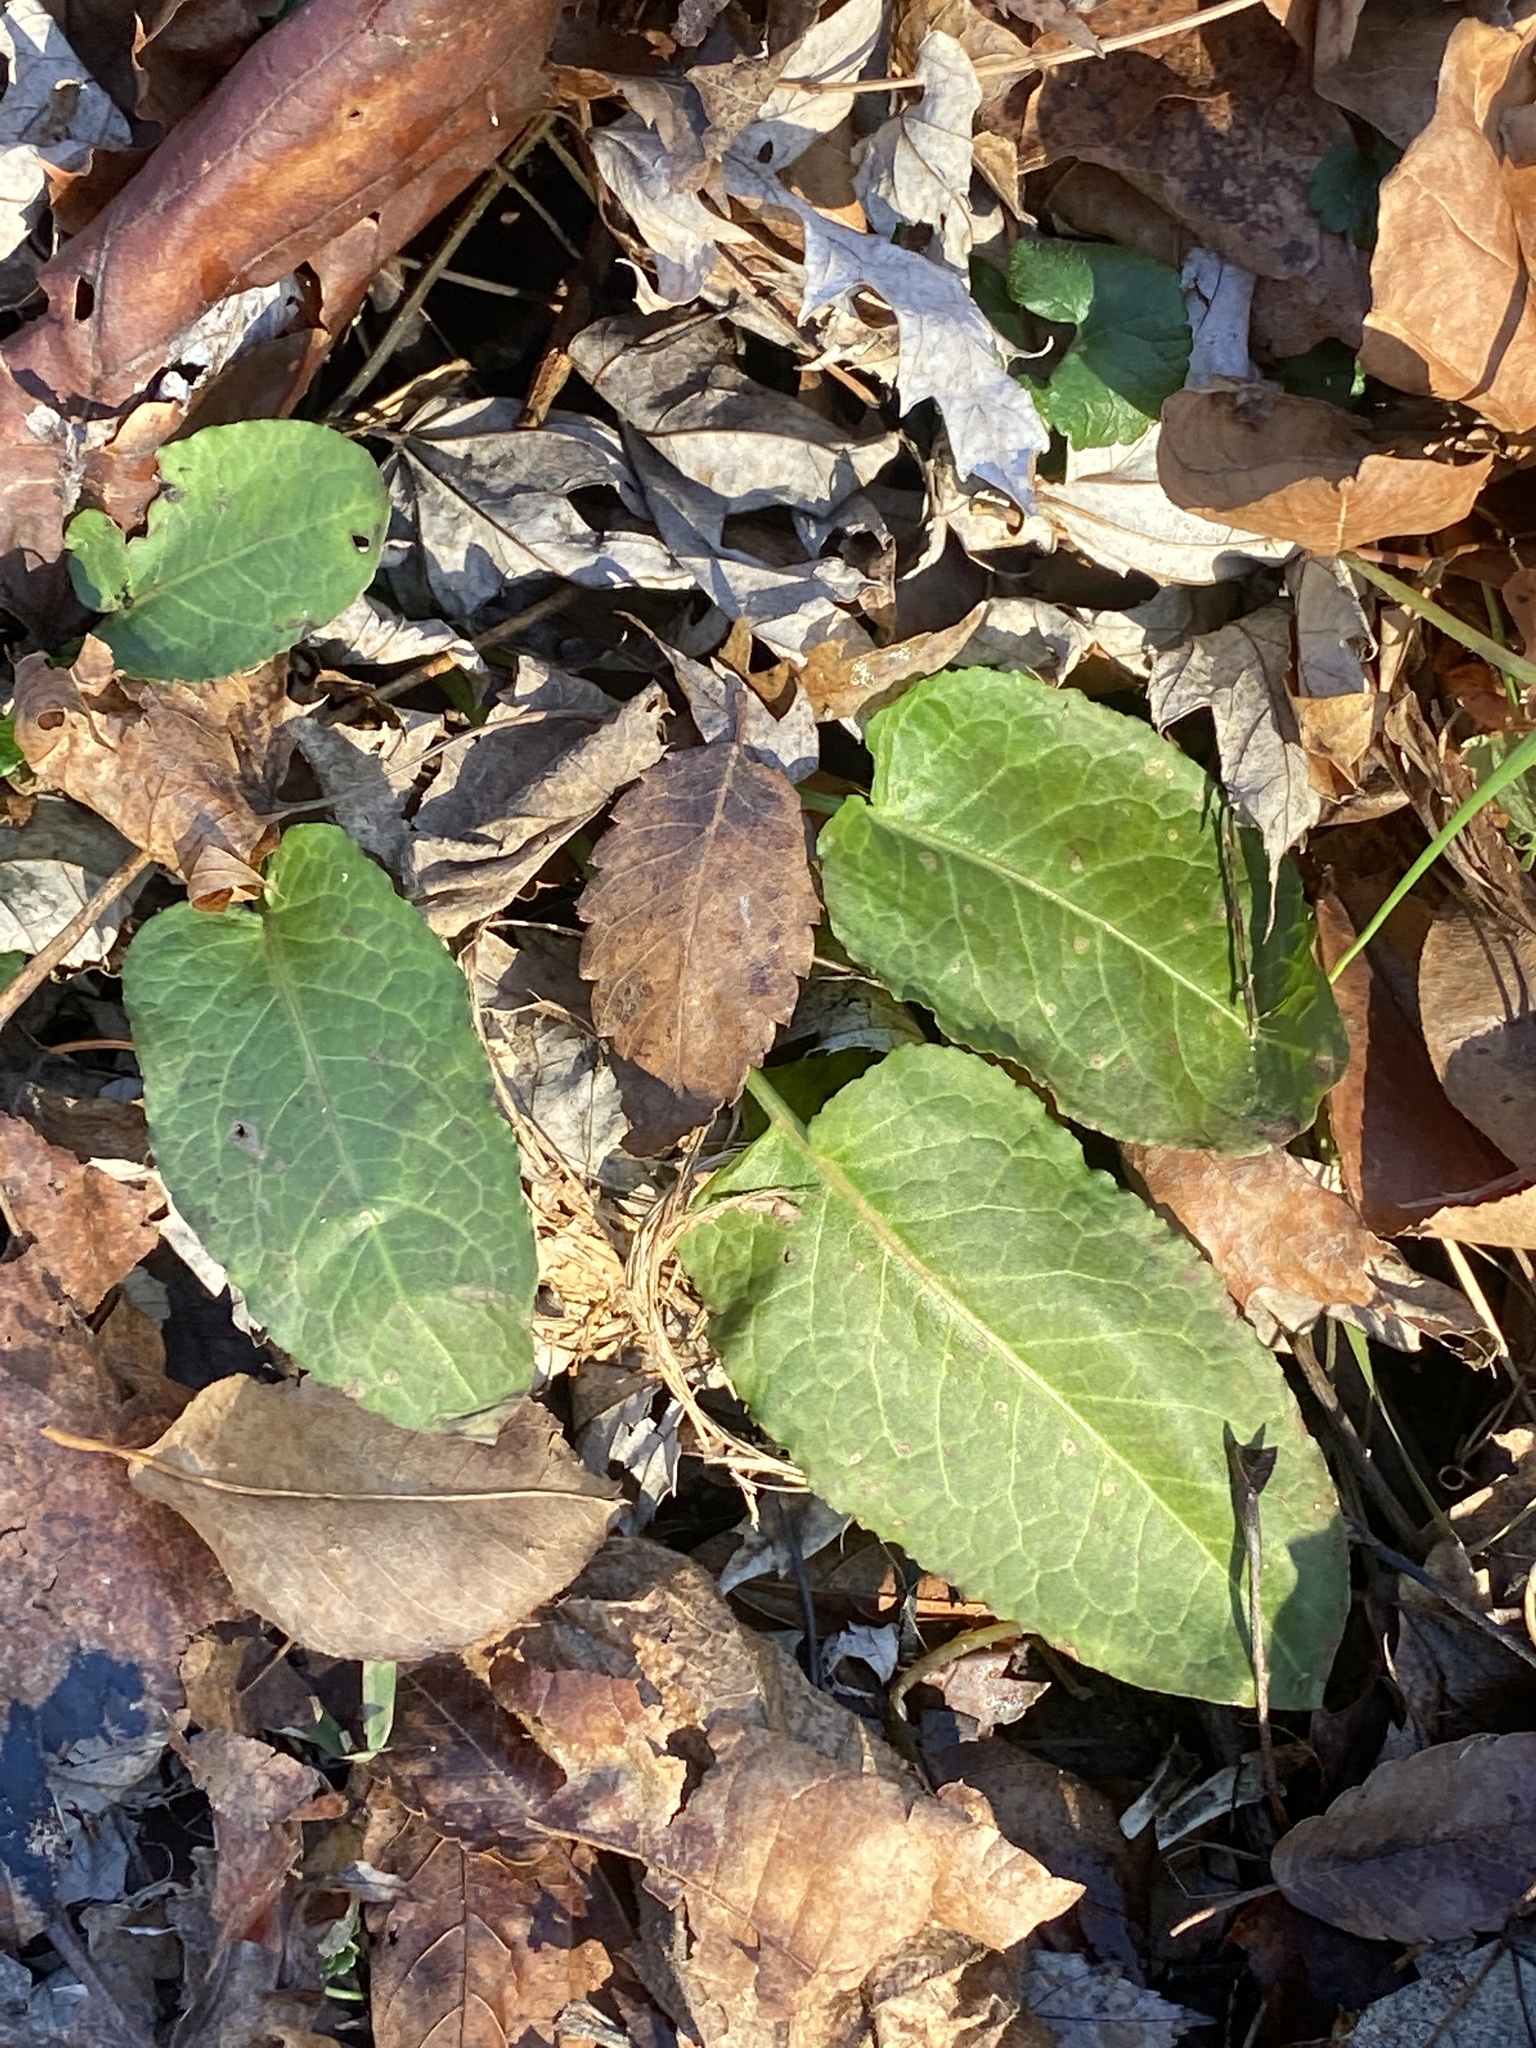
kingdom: Plantae
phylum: Tracheophyta
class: Magnoliopsida
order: Caryophyllales
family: Polygonaceae
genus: Rumex
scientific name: Rumex obtusifolius
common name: Bitter dock
